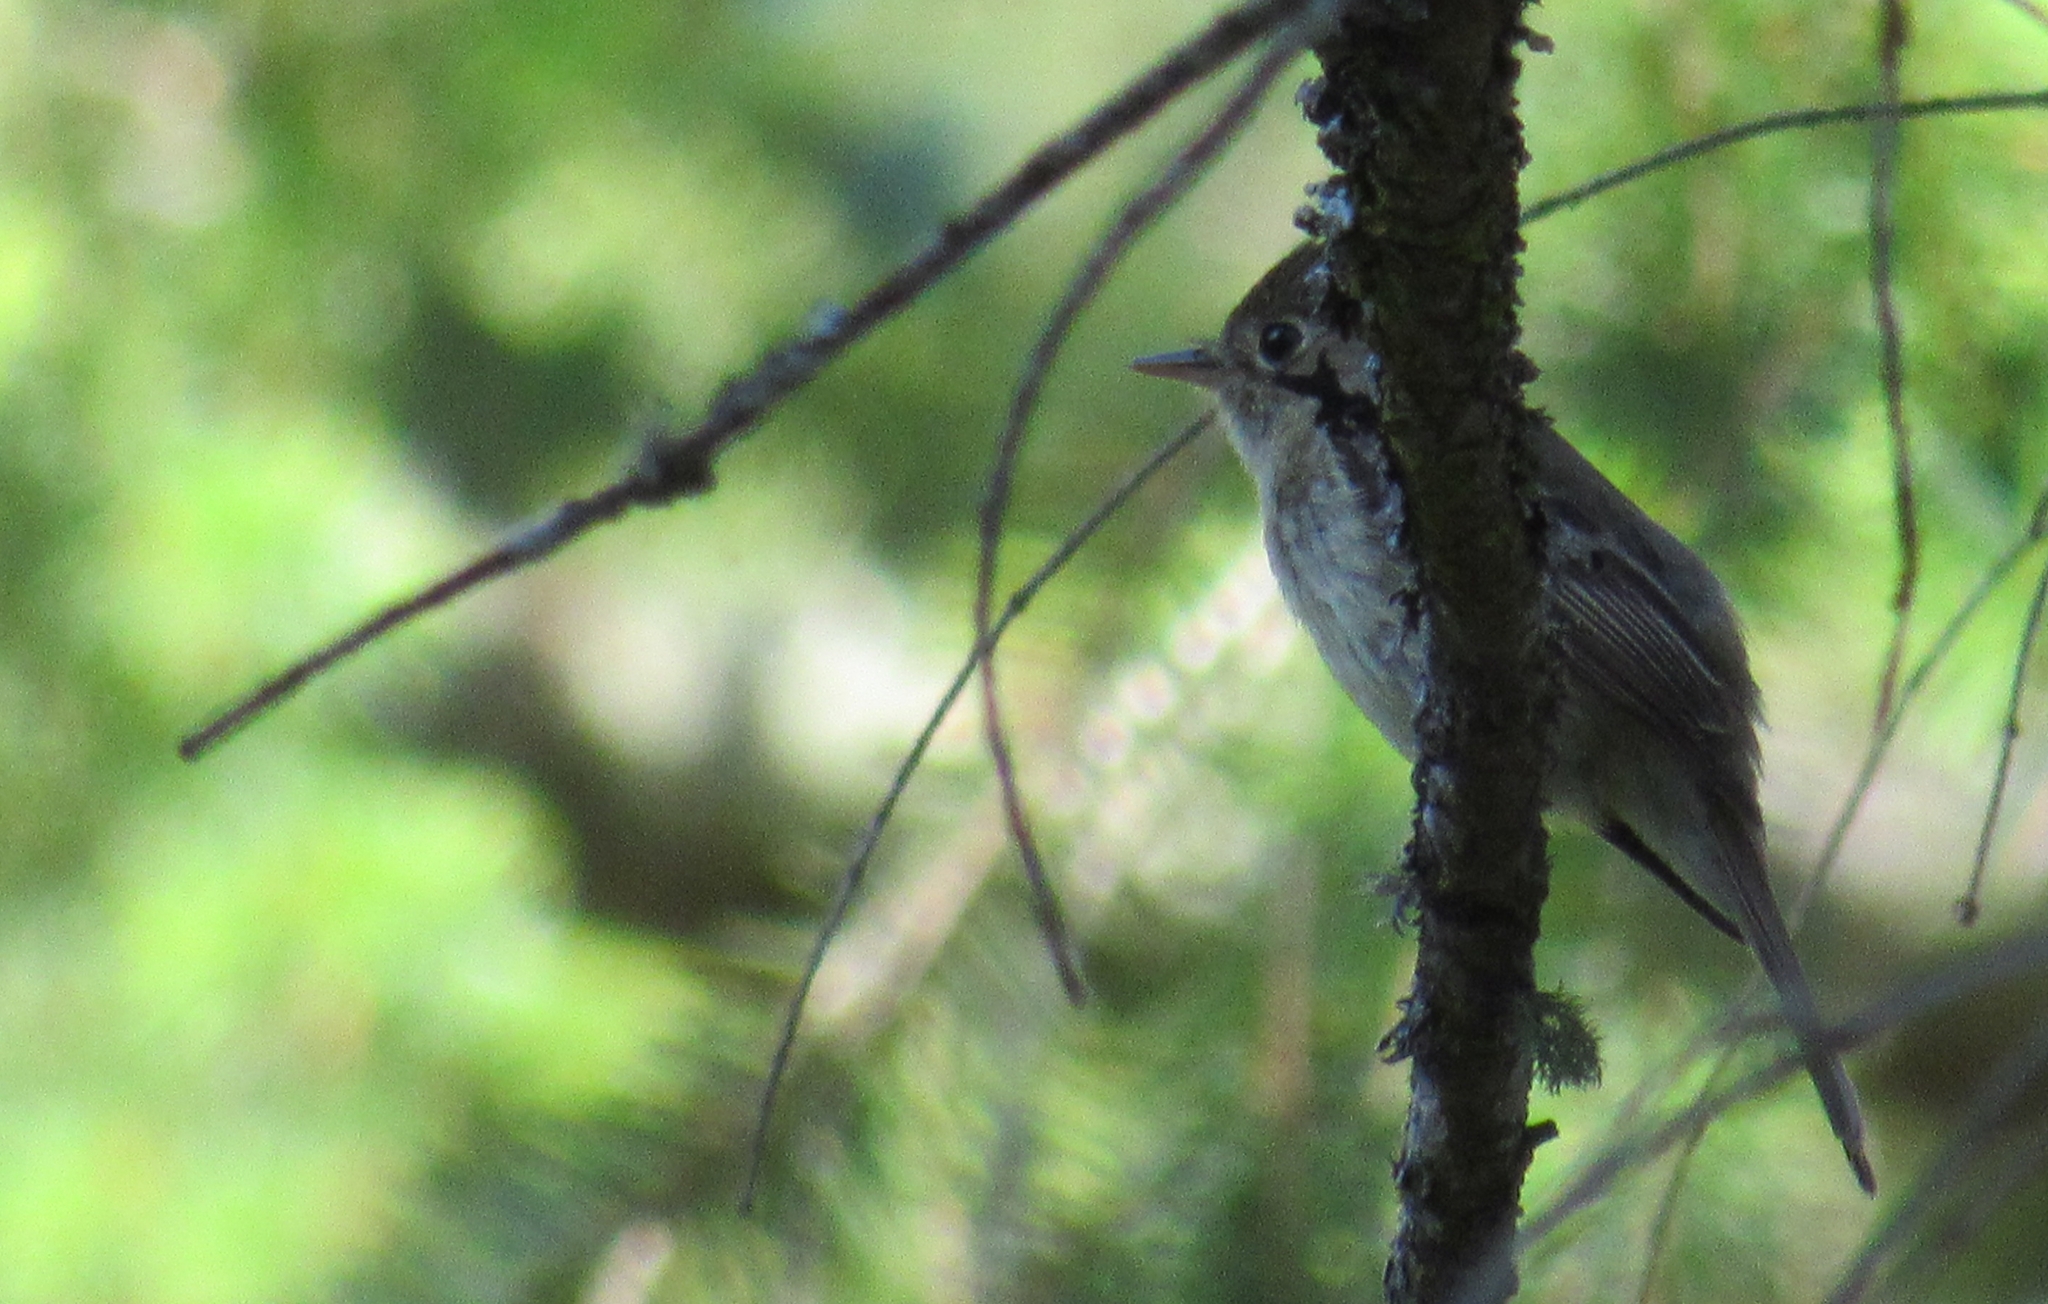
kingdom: Animalia
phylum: Chordata
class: Aves
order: Passeriformes
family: Tyrannidae
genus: Empidonax
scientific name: Empidonax difficilis
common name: Pacific-slope flycatcher
